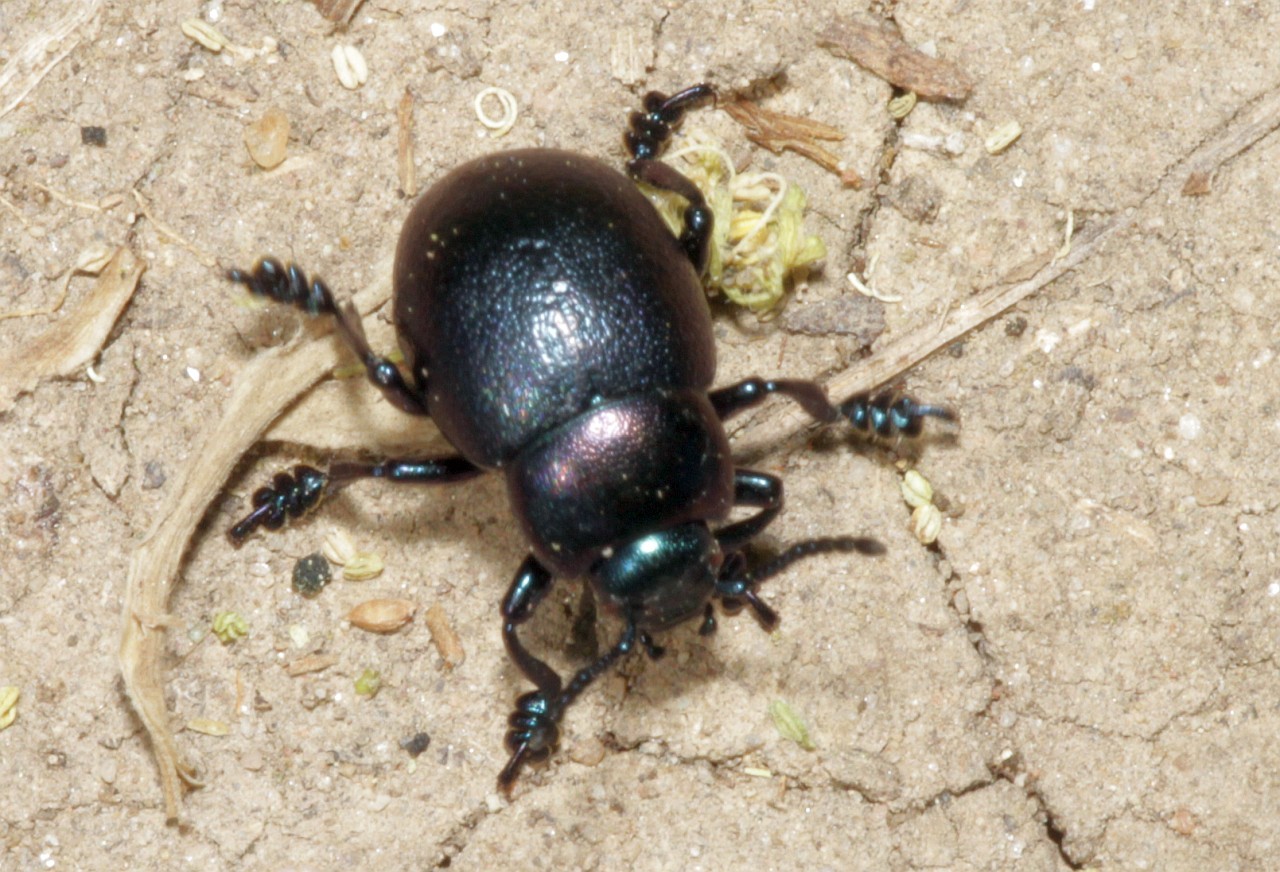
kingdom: Animalia
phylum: Arthropoda
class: Insecta
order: Coleoptera
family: Chrysomelidae
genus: Timarcha
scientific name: Timarcha goettingensis
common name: Small bloody-nosed beetle
